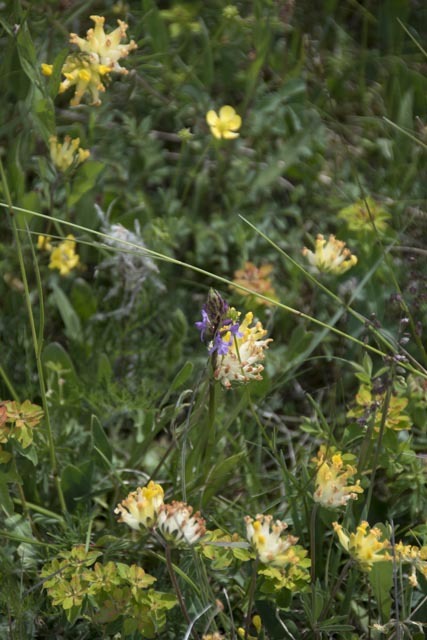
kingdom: Plantae
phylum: Tracheophyta
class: Magnoliopsida
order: Fabales
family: Fabaceae
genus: Anthyllis
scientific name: Anthyllis vulneraria
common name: Kidney vetch
